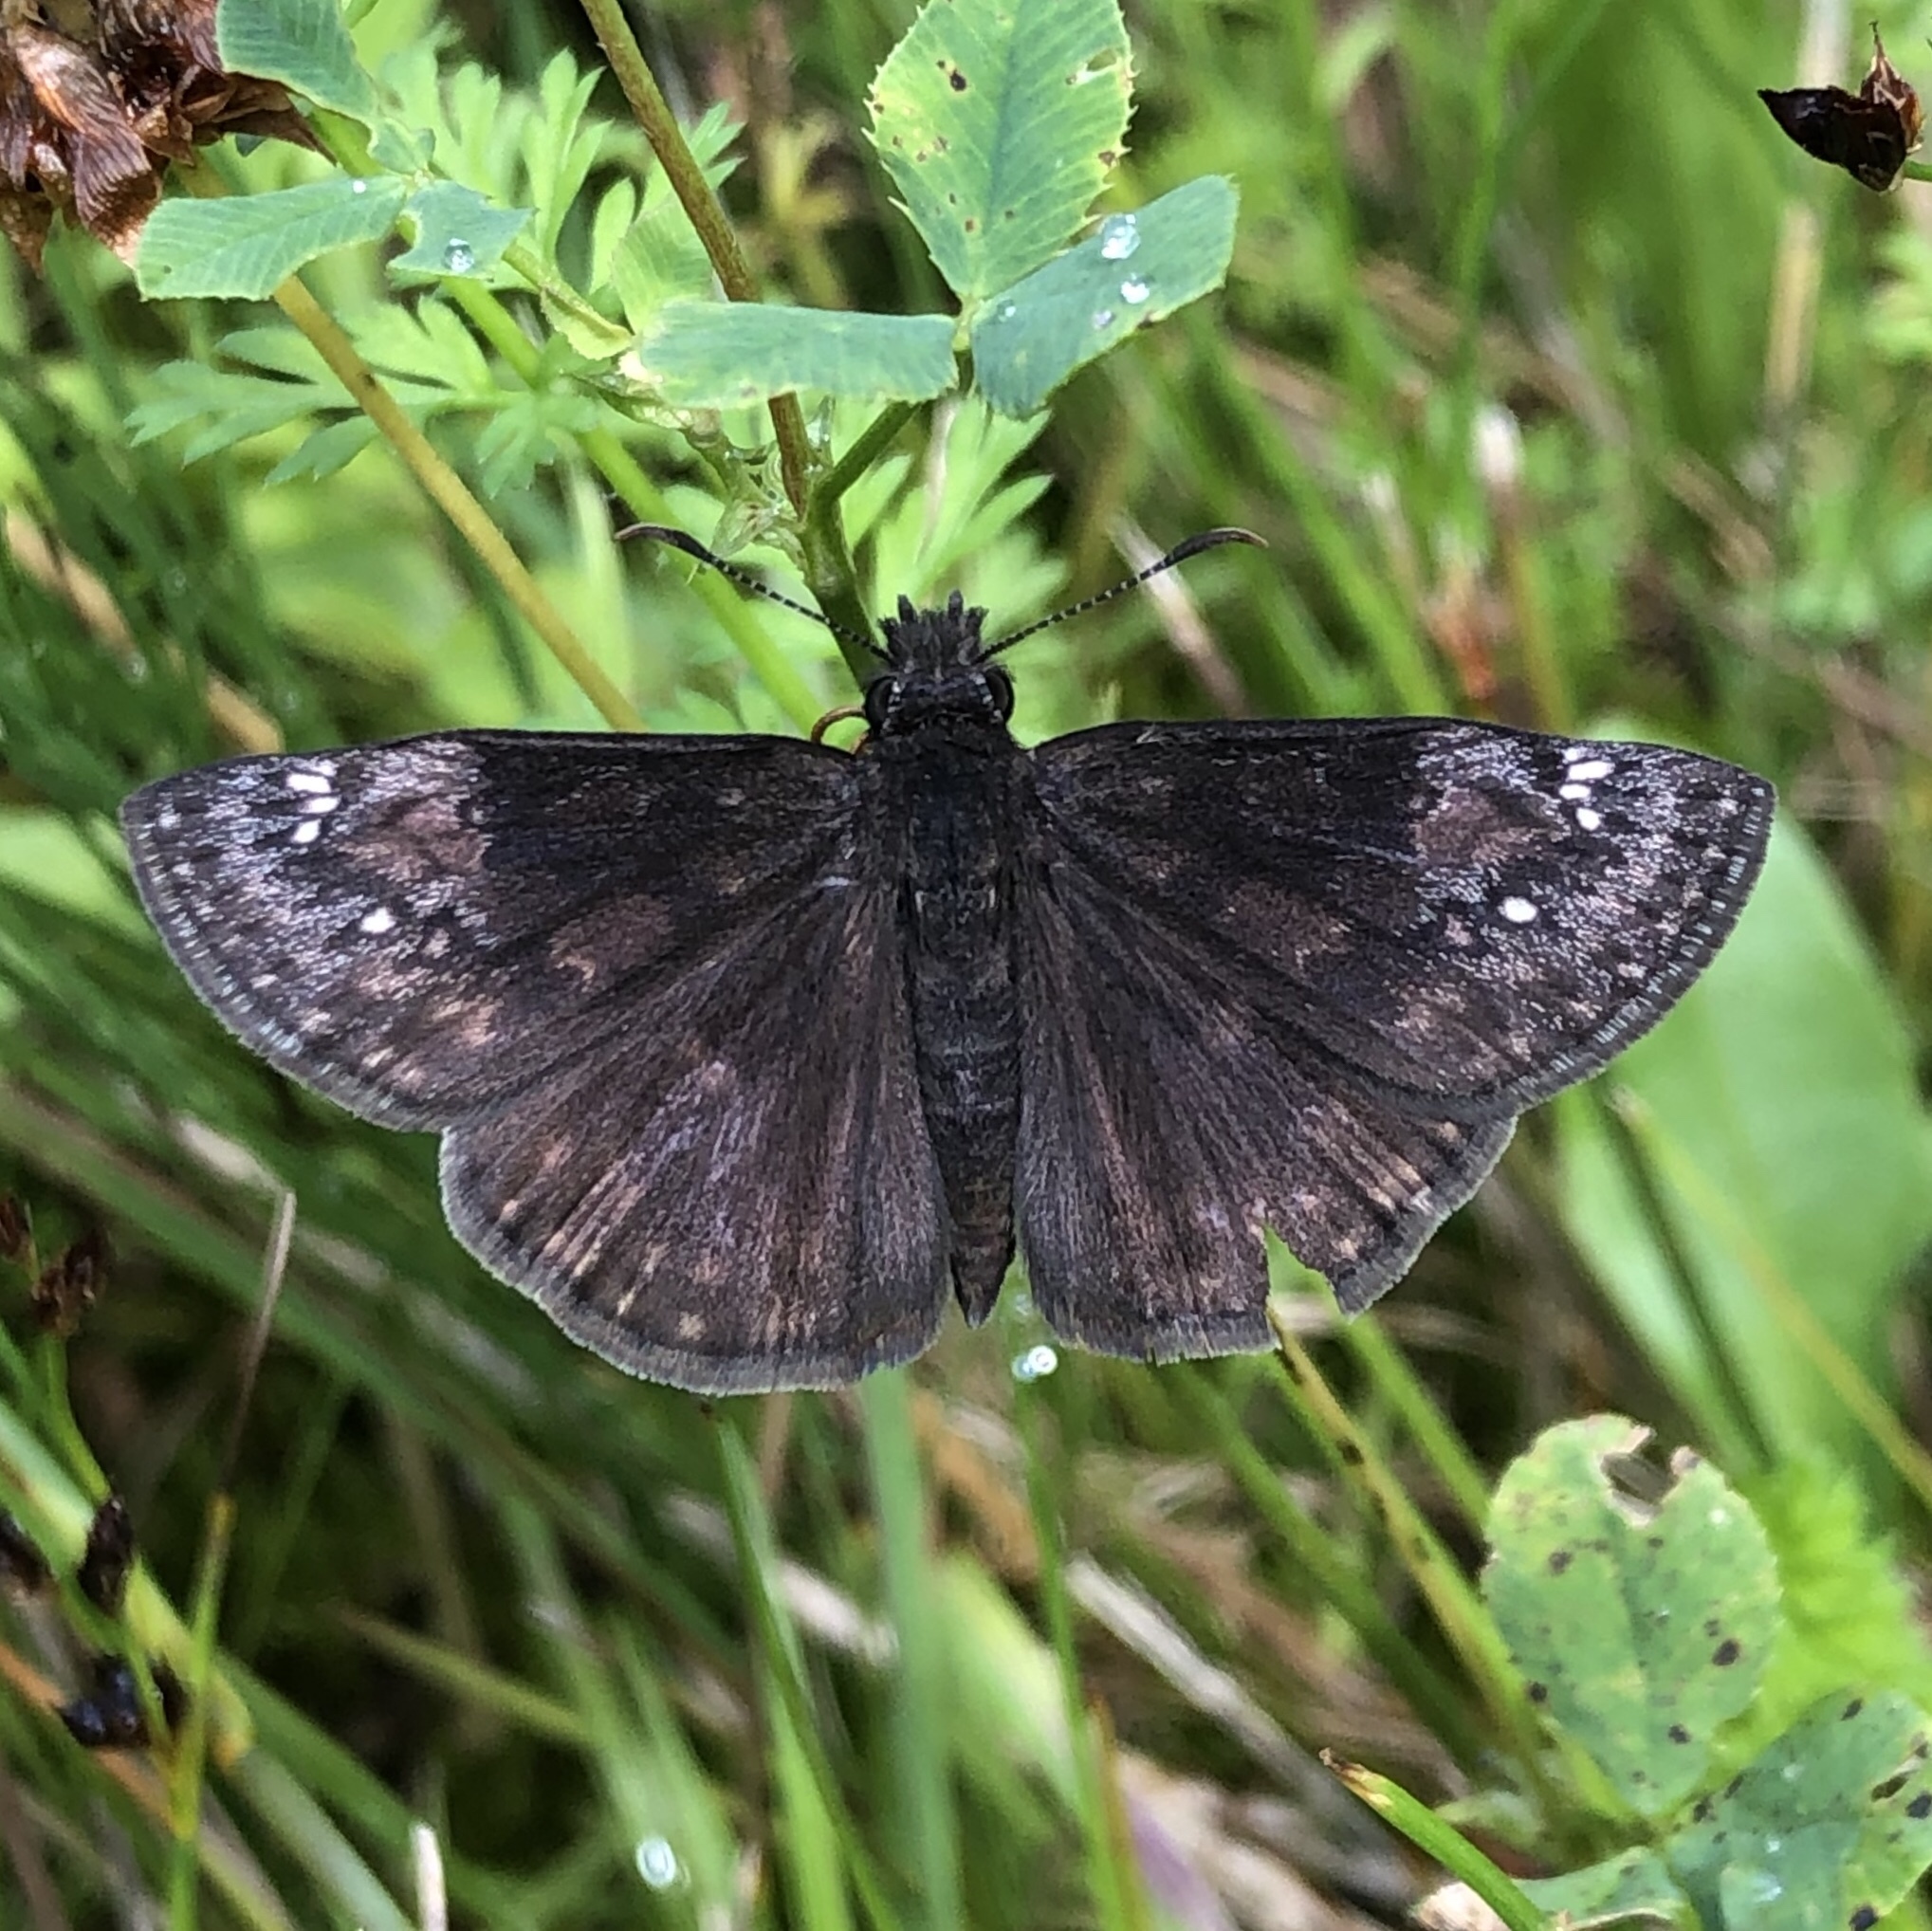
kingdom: Animalia
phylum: Arthropoda
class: Insecta
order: Lepidoptera
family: Hesperiidae
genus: Erynnis
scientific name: Erynnis baptisiae
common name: Wild indigo duskywing
